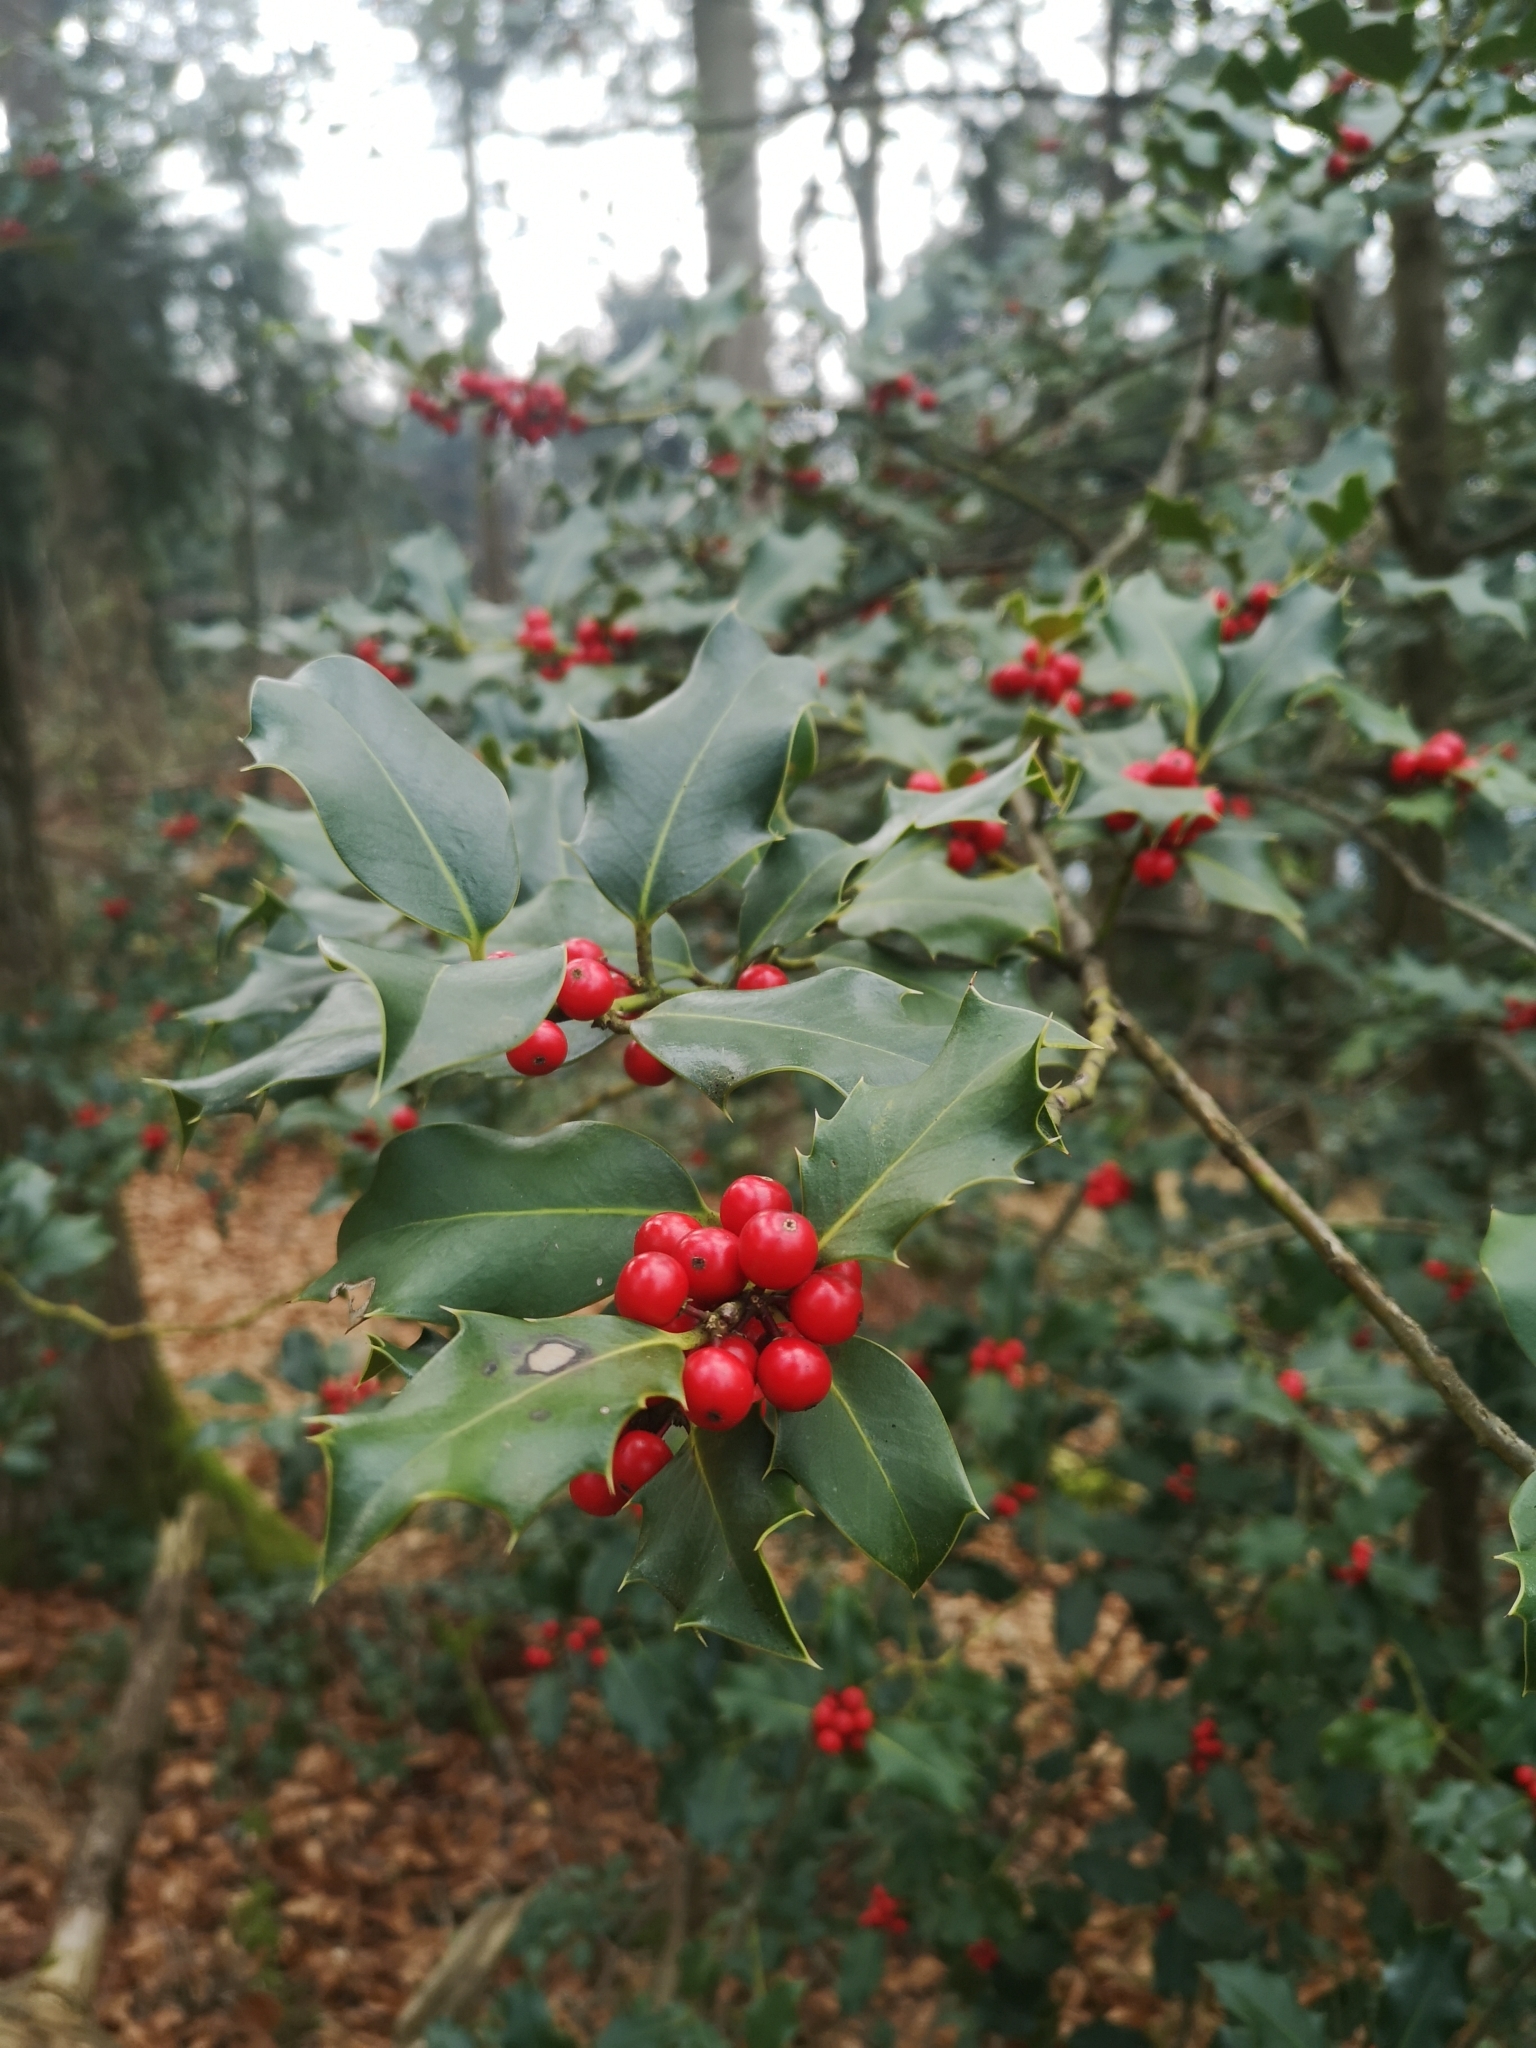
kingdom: Plantae
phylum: Tracheophyta
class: Magnoliopsida
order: Aquifoliales
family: Aquifoliaceae
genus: Ilex
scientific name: Ilex aquifolium
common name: English holly
